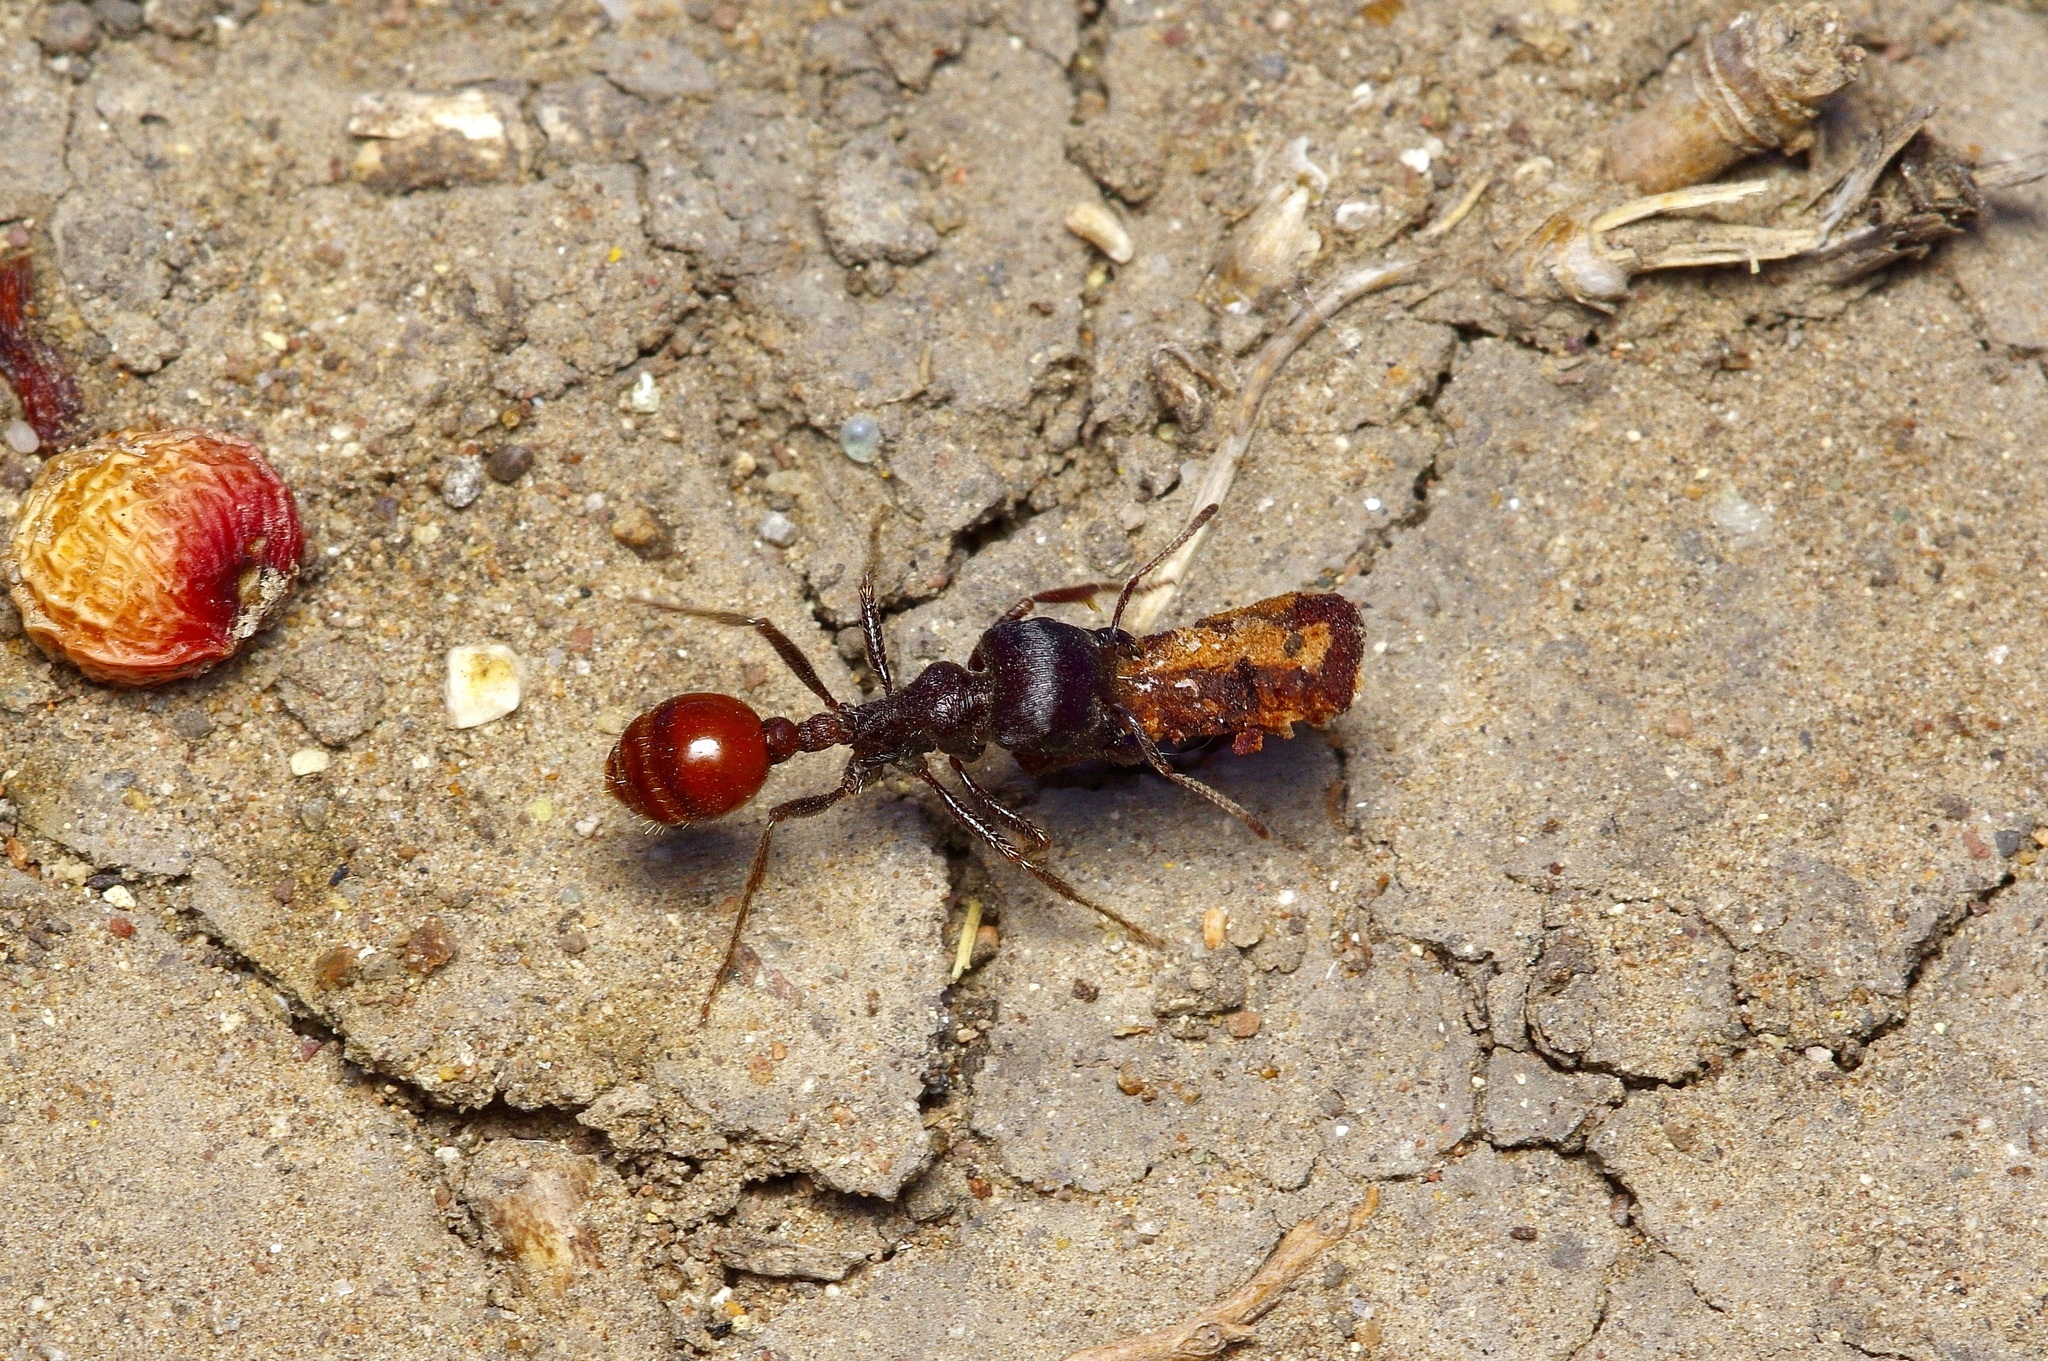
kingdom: Animalia
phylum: Arthropoda
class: Insecta
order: Hymenoptera
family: Formicidae
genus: Pogonomyrmex
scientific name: Pogonomyrmex rugosus
